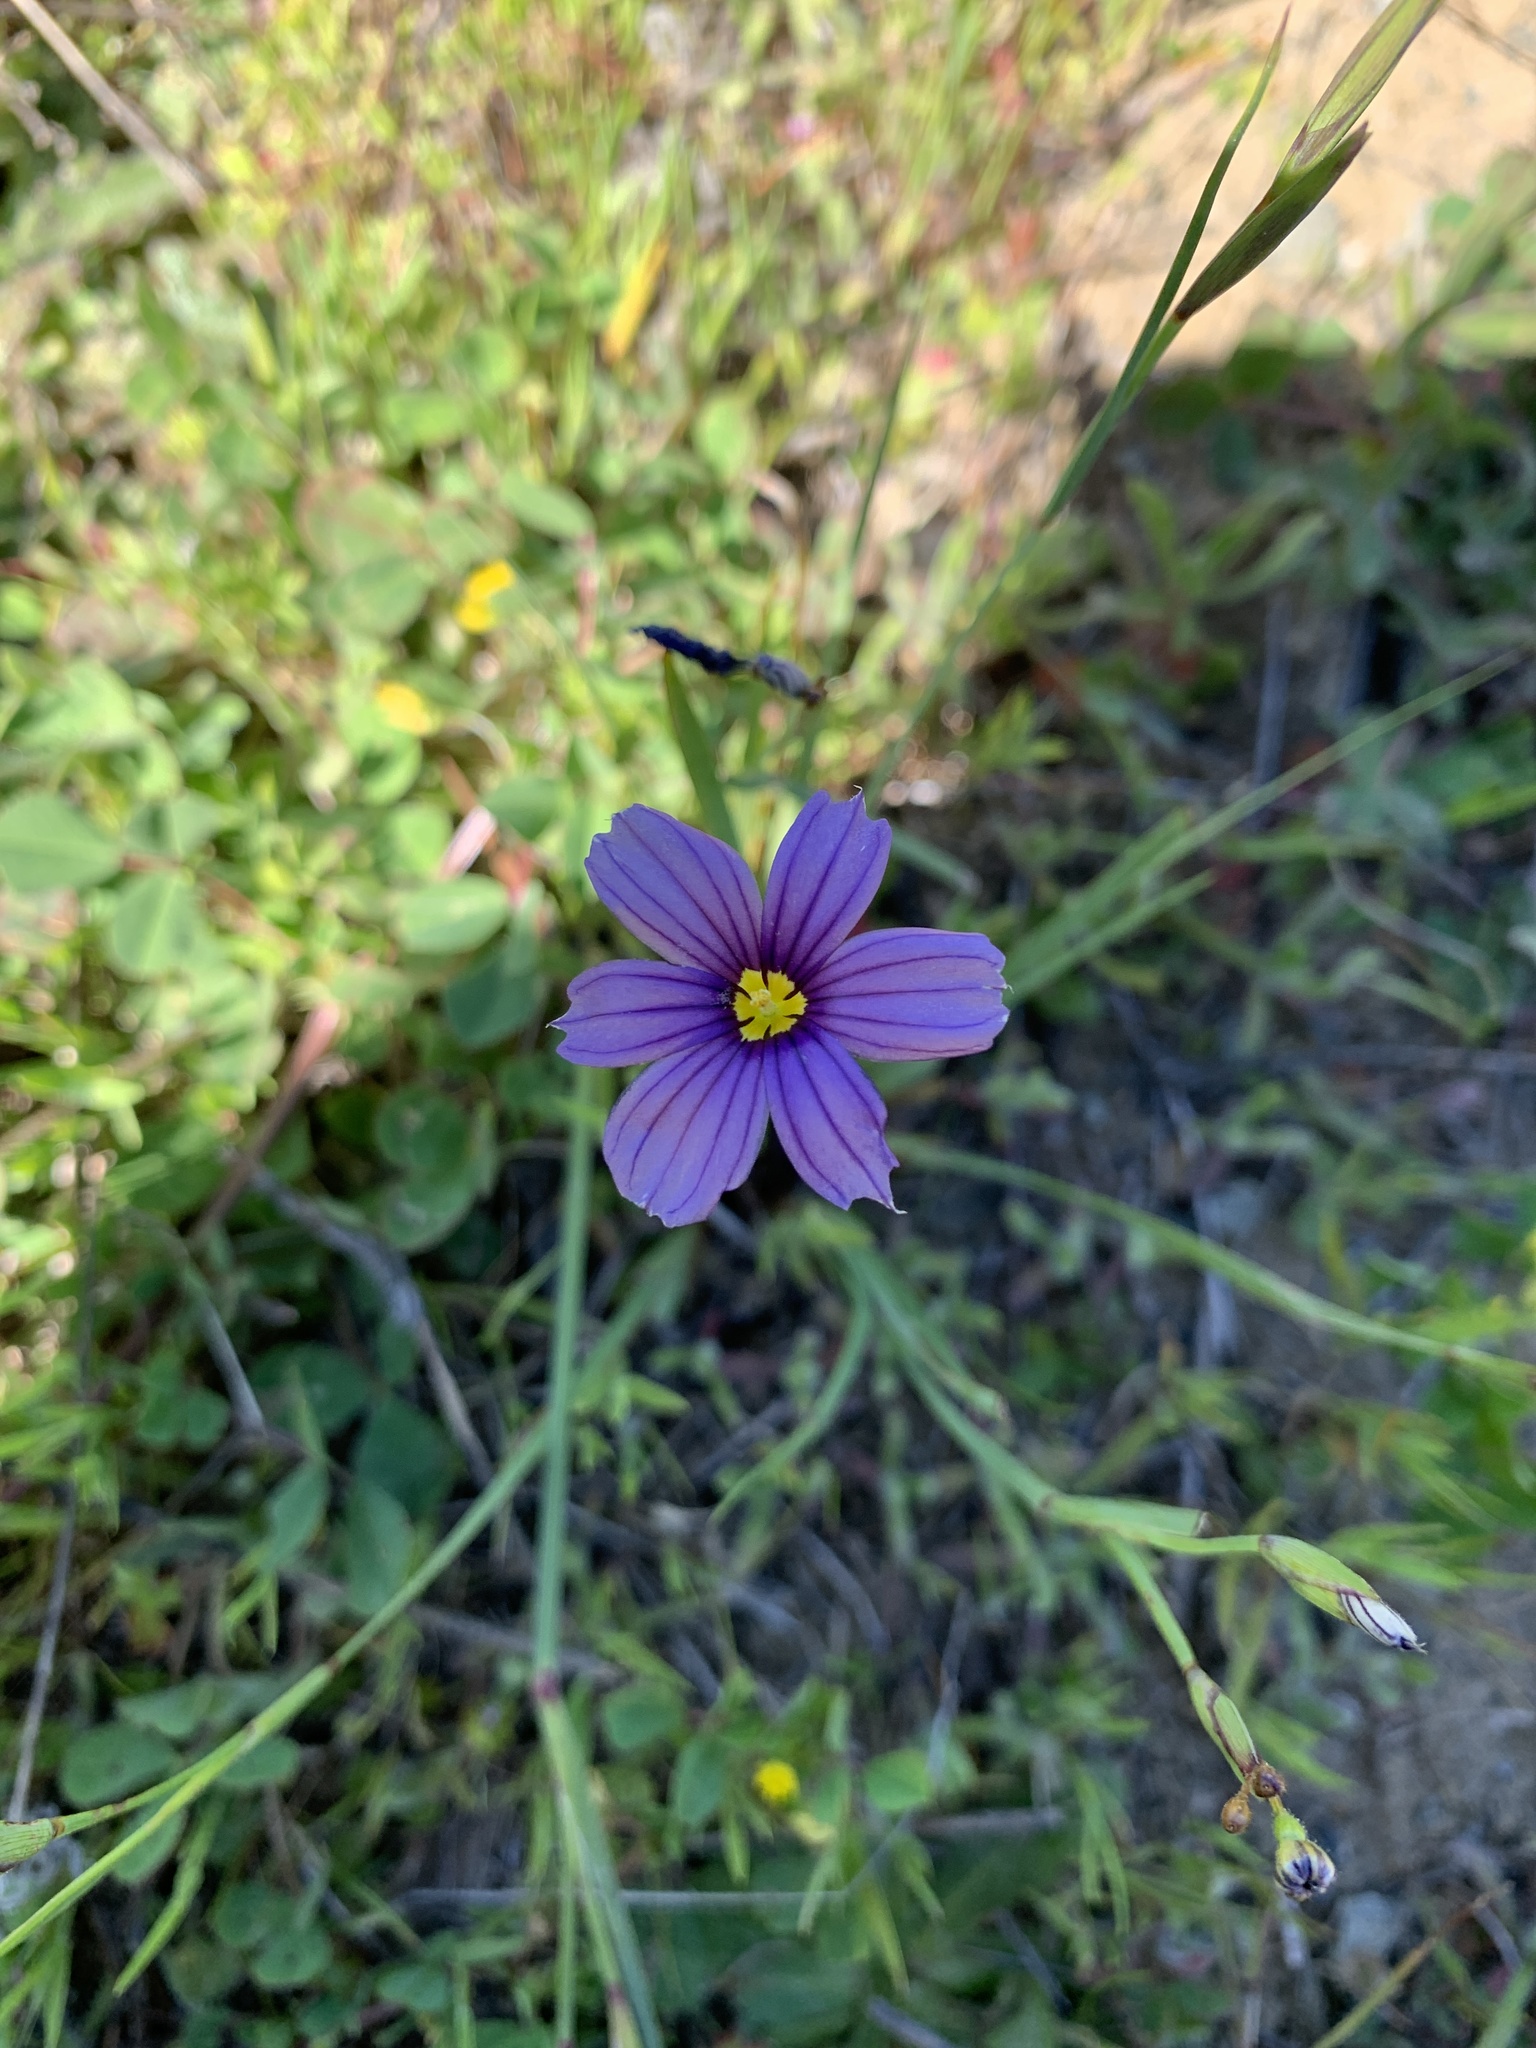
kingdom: Plantae
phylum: Tracheophyta
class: Liliopsida
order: Asparagales
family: Iridaceae
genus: Sisyrinchium
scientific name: Sisyrinchium bellum
